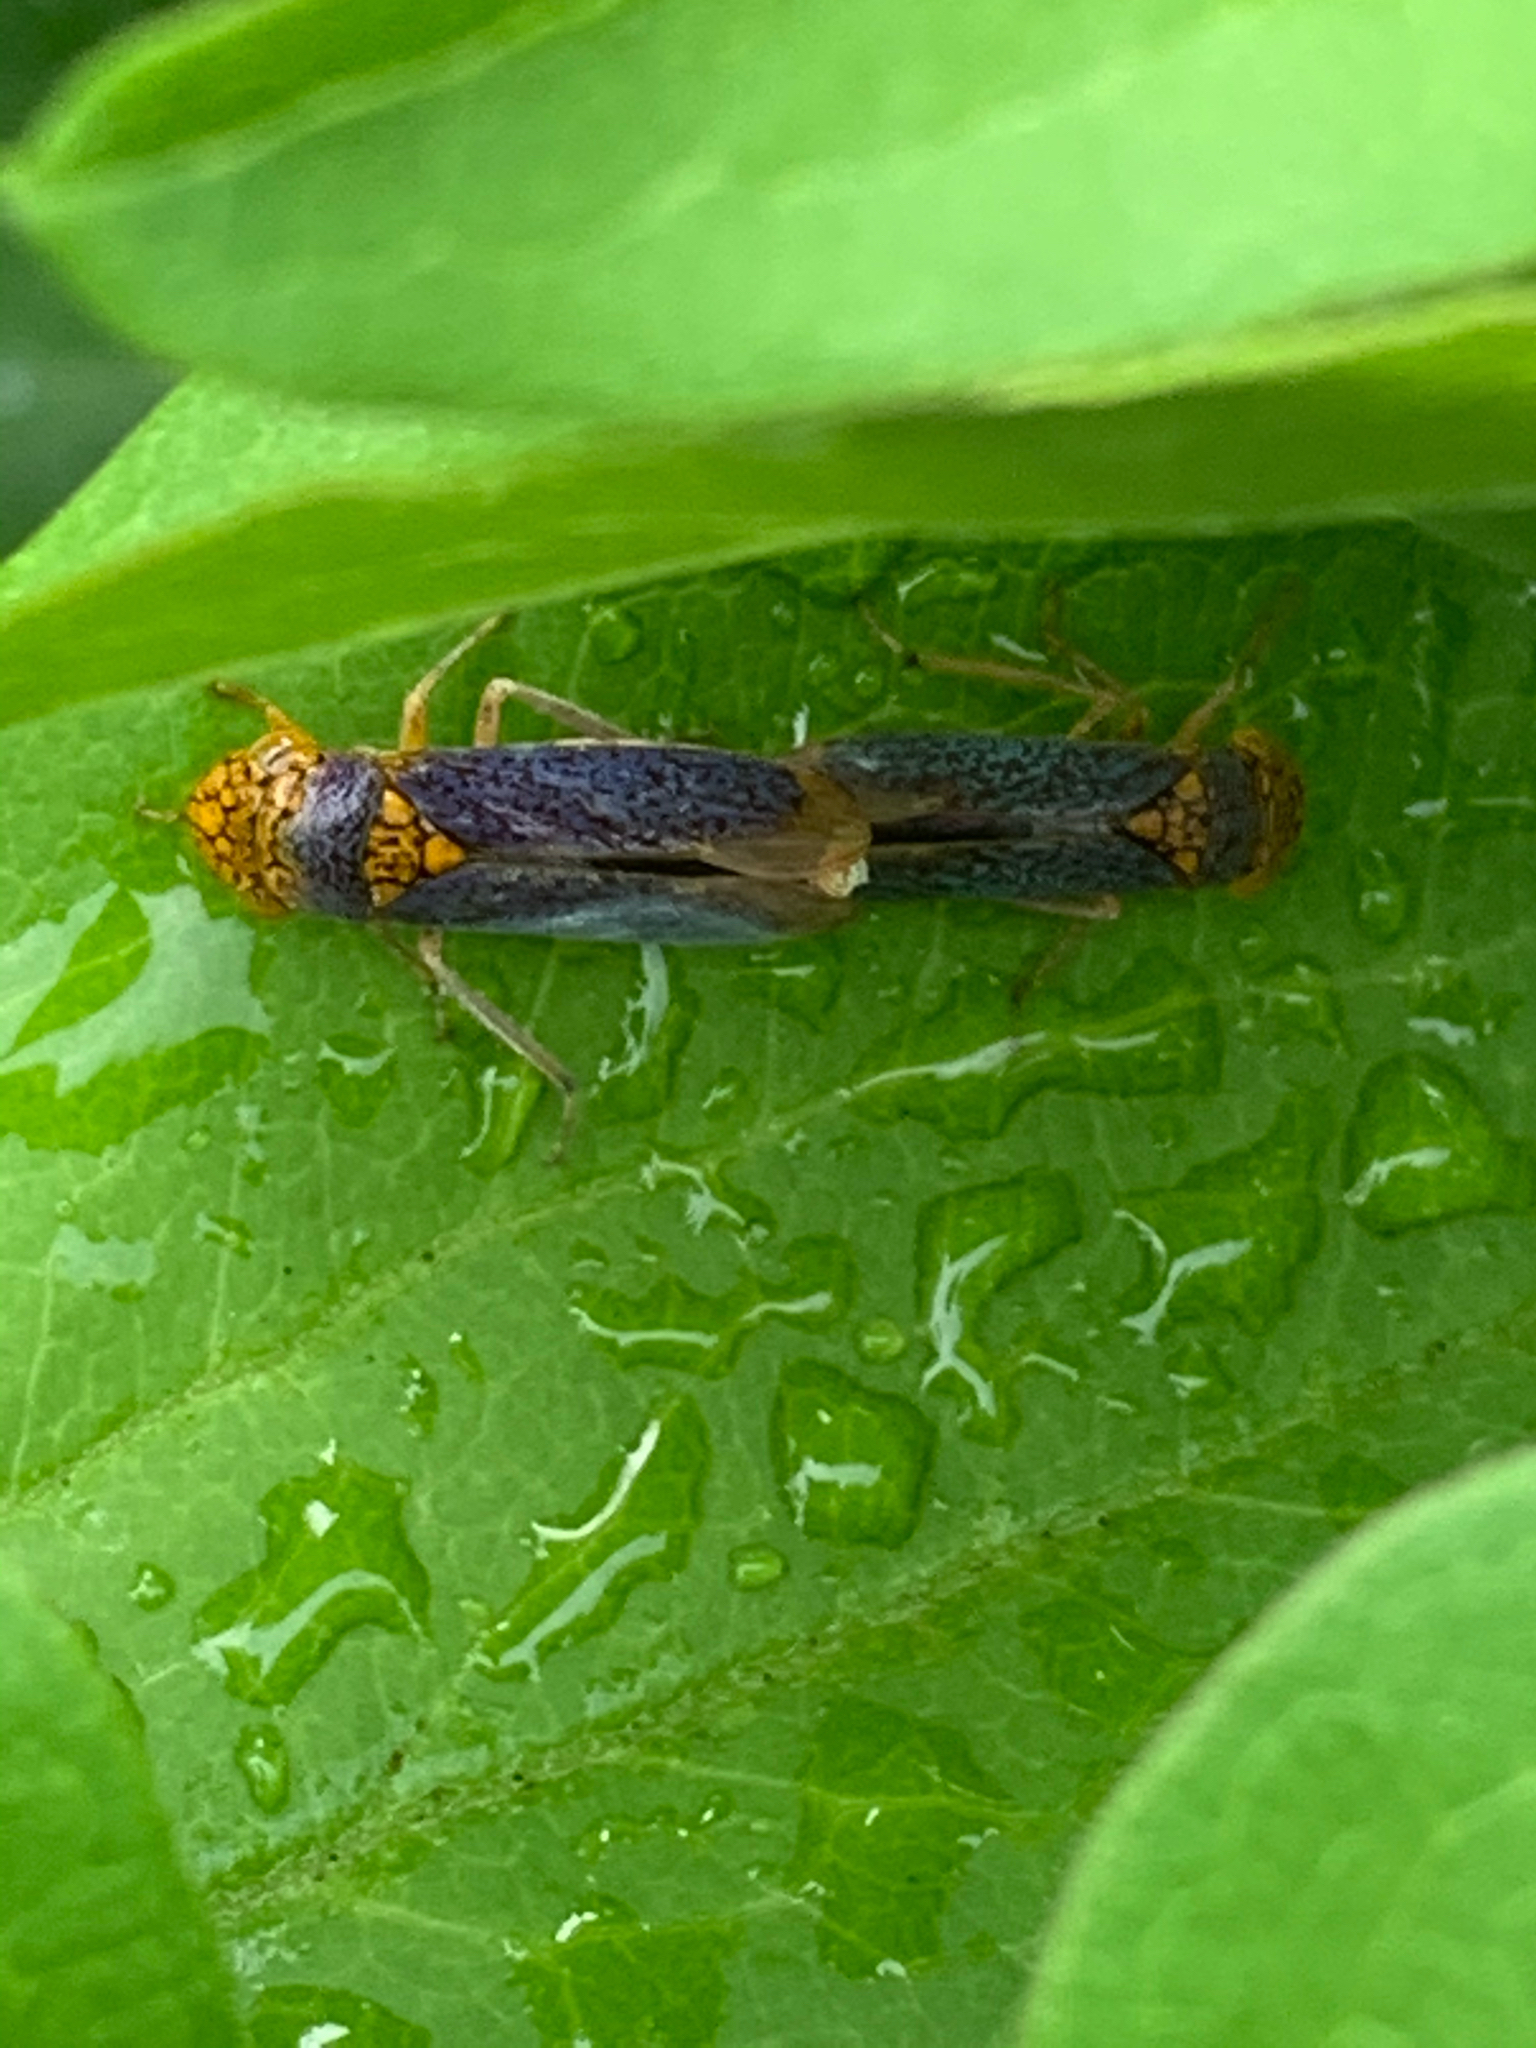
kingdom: Animalia
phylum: Arthropoda
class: Insecta
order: Hemiptera
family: Cicadellidae
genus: Oncometopia
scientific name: Oncometopia orbona
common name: Broad-headed sharpshooter
